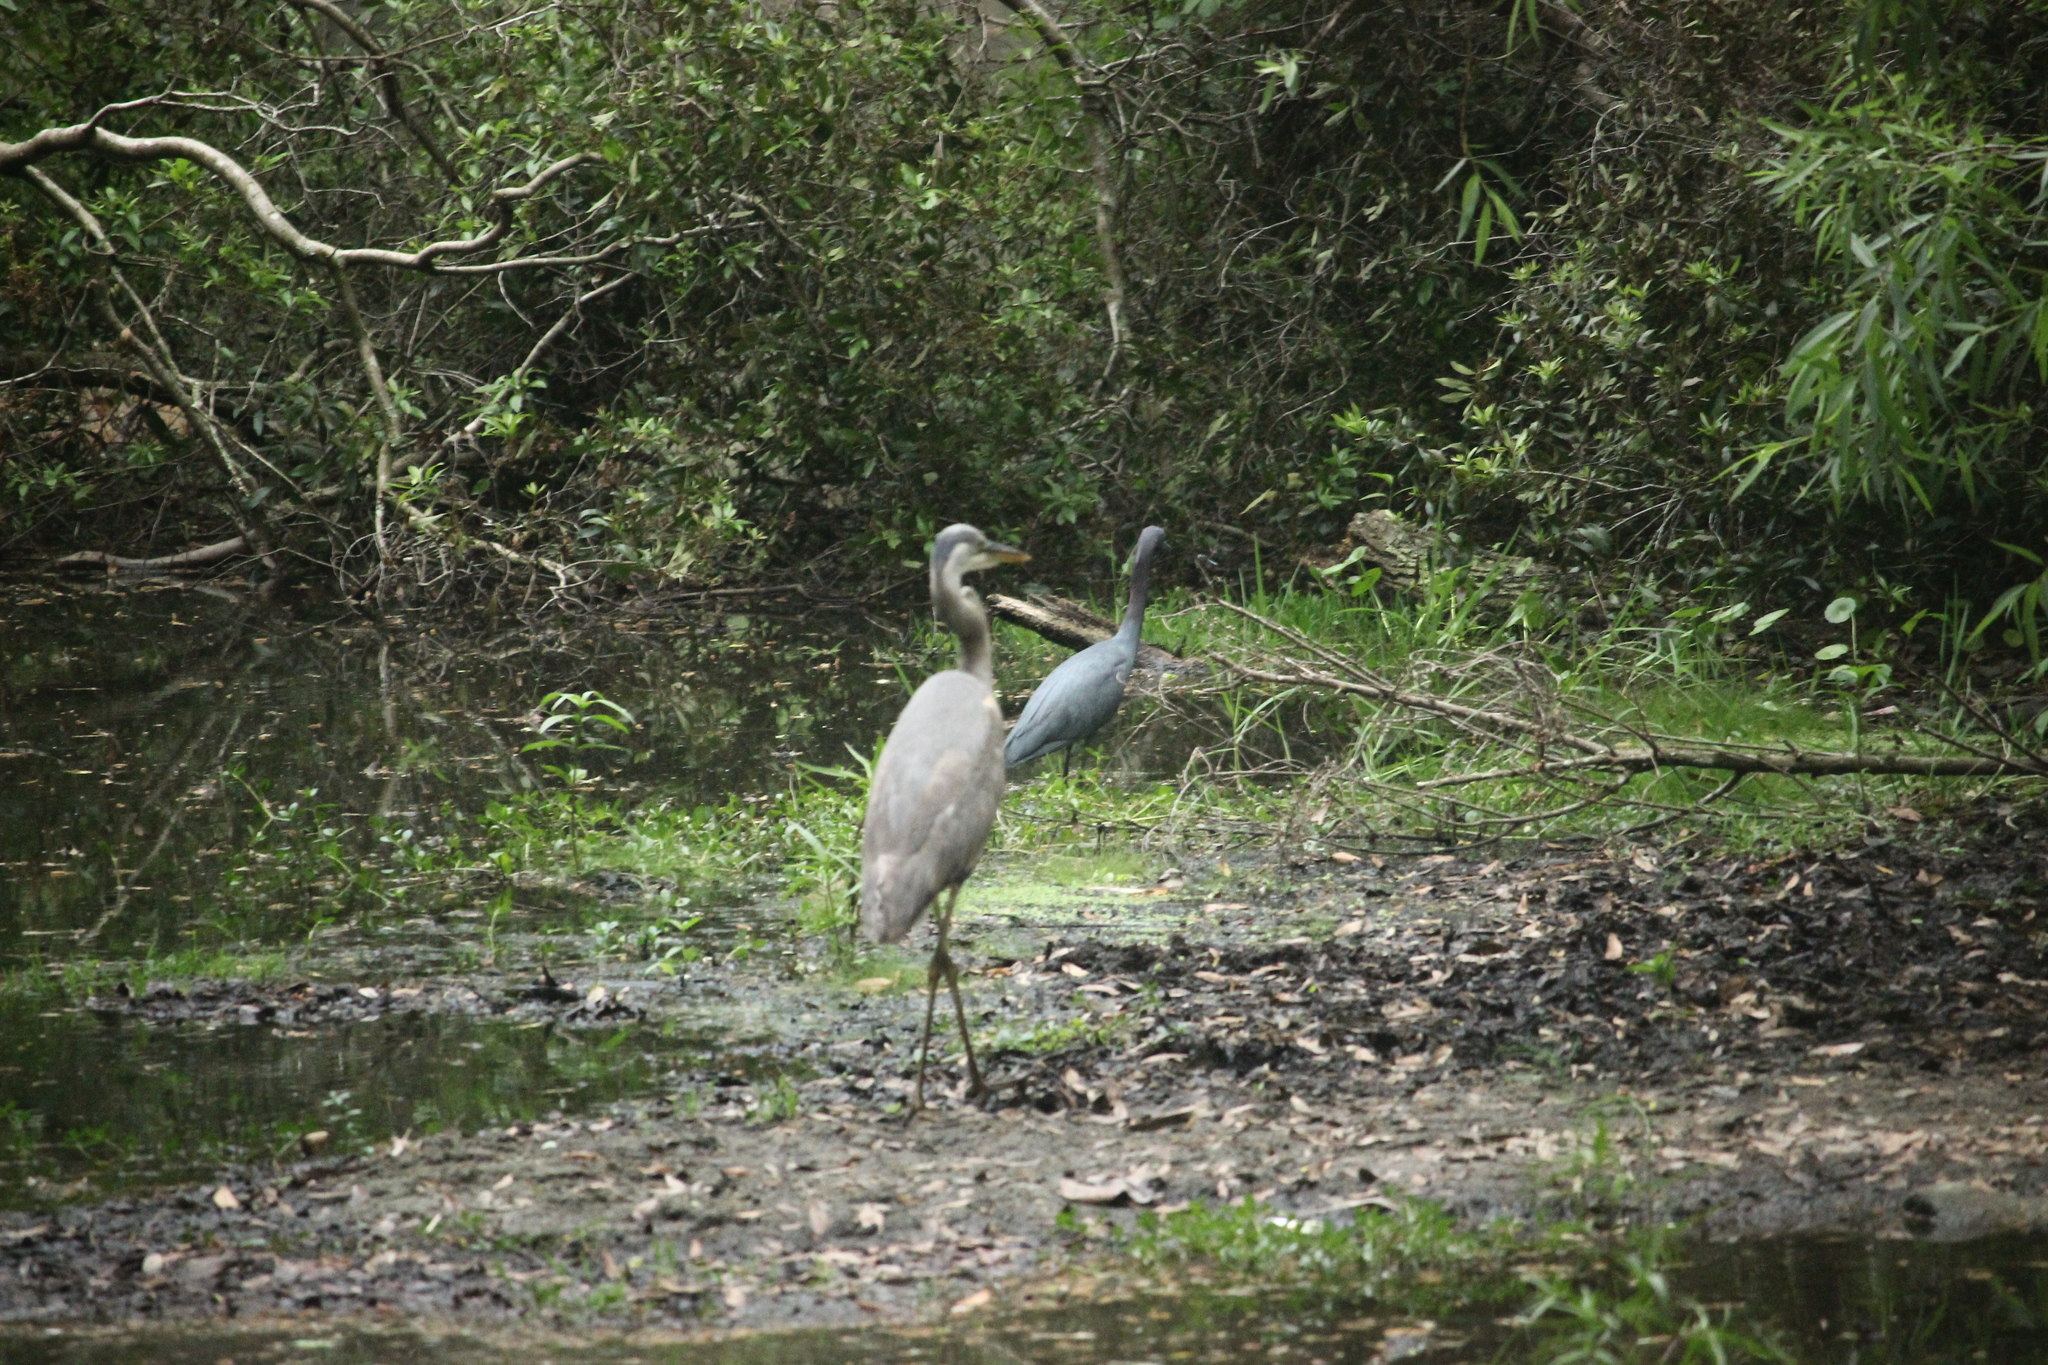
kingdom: Animalia
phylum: Chordata
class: Aves
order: Pelecaniformes
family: Ardeidae
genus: Egretta
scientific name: Egretta caerulea
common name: Little blue heron
